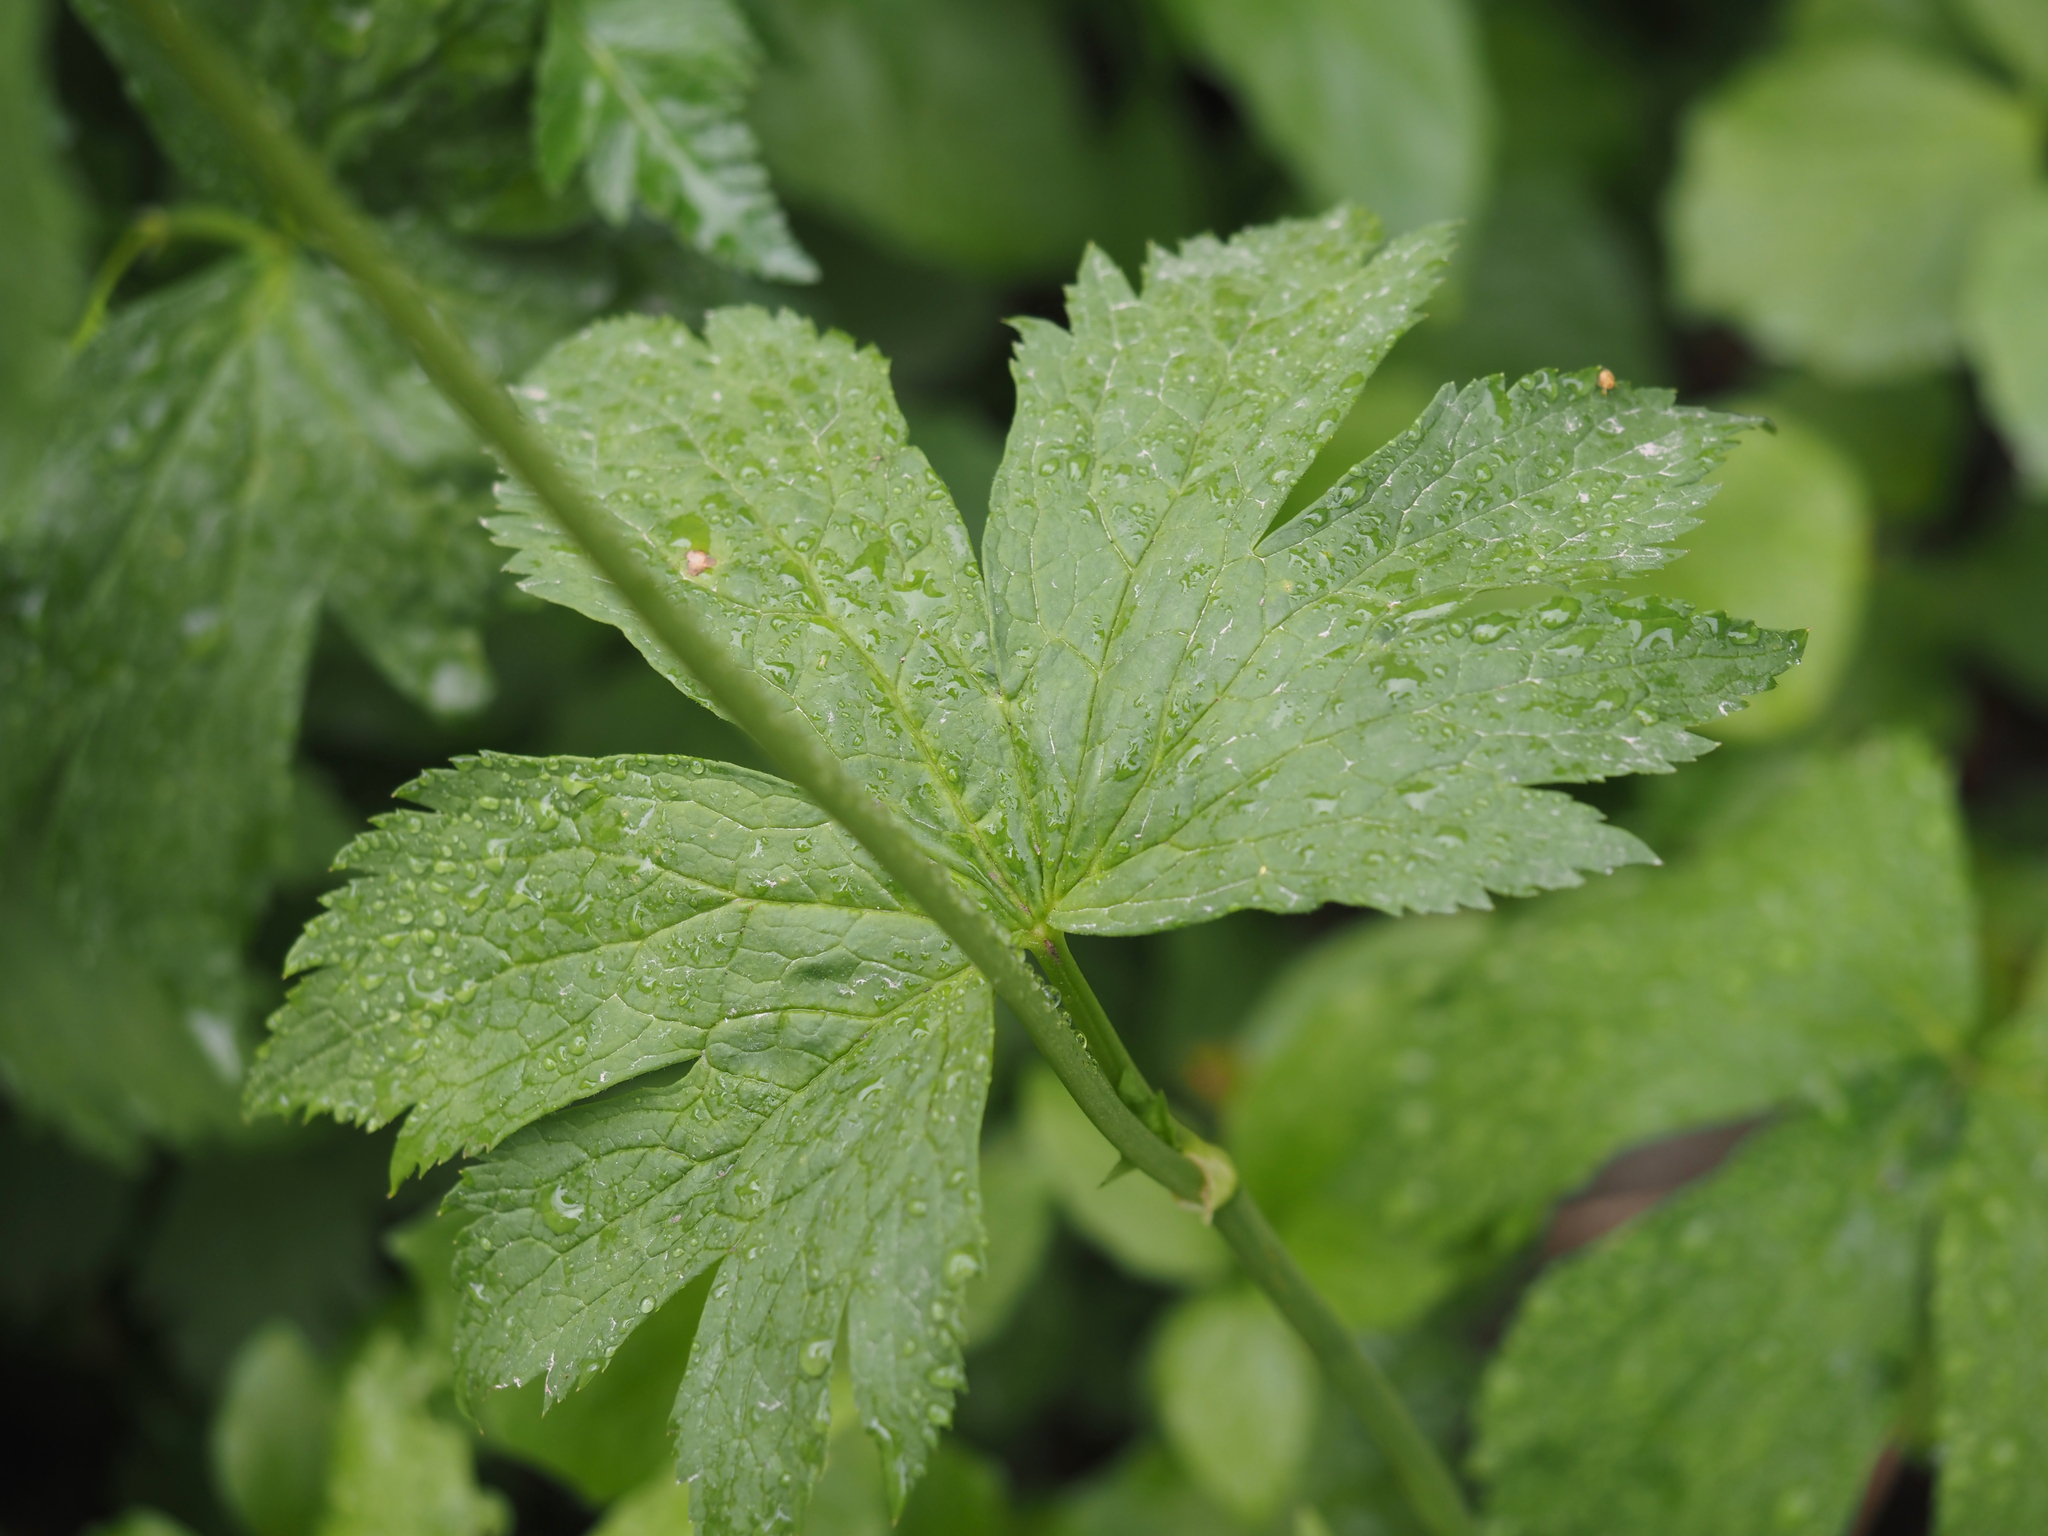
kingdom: Plantae
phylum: Tracheophyta
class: Magnoliopsida
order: Ranunculales
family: Ranunculaceae
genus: Trautvetteria
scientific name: Trautvetteria carolinensis
